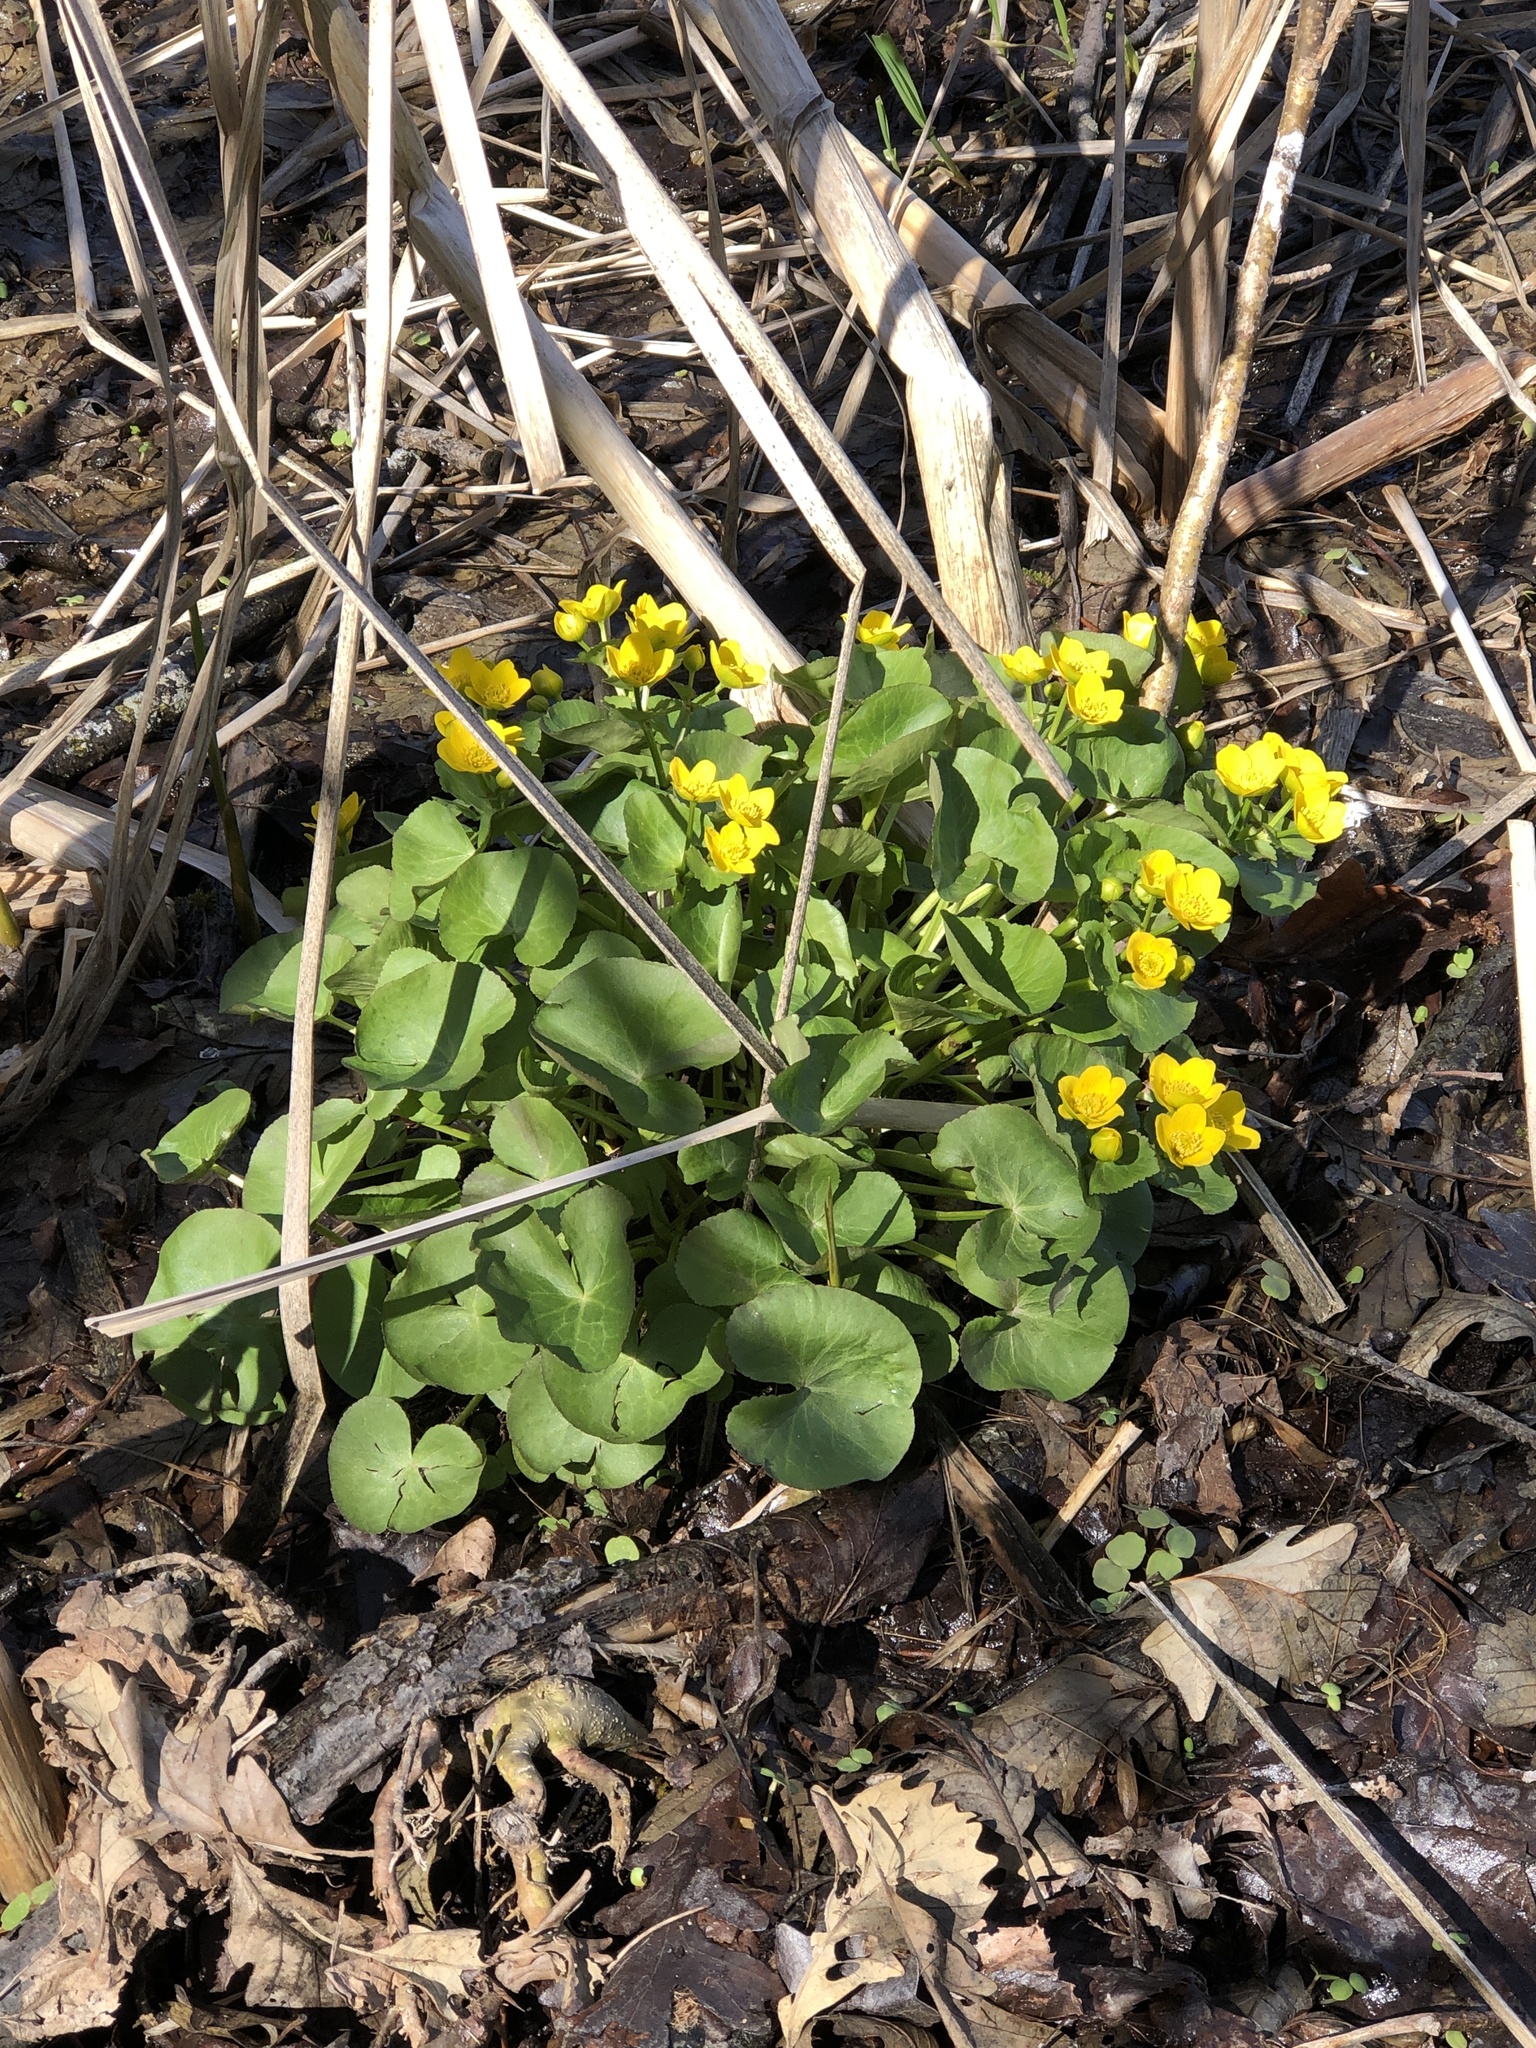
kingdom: Plantae
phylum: Tracheophyta
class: Magnoliopsida
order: Ranunculales
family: Ranunculaceae
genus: Caltha
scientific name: Caltha palustris
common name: Marsh marigold
